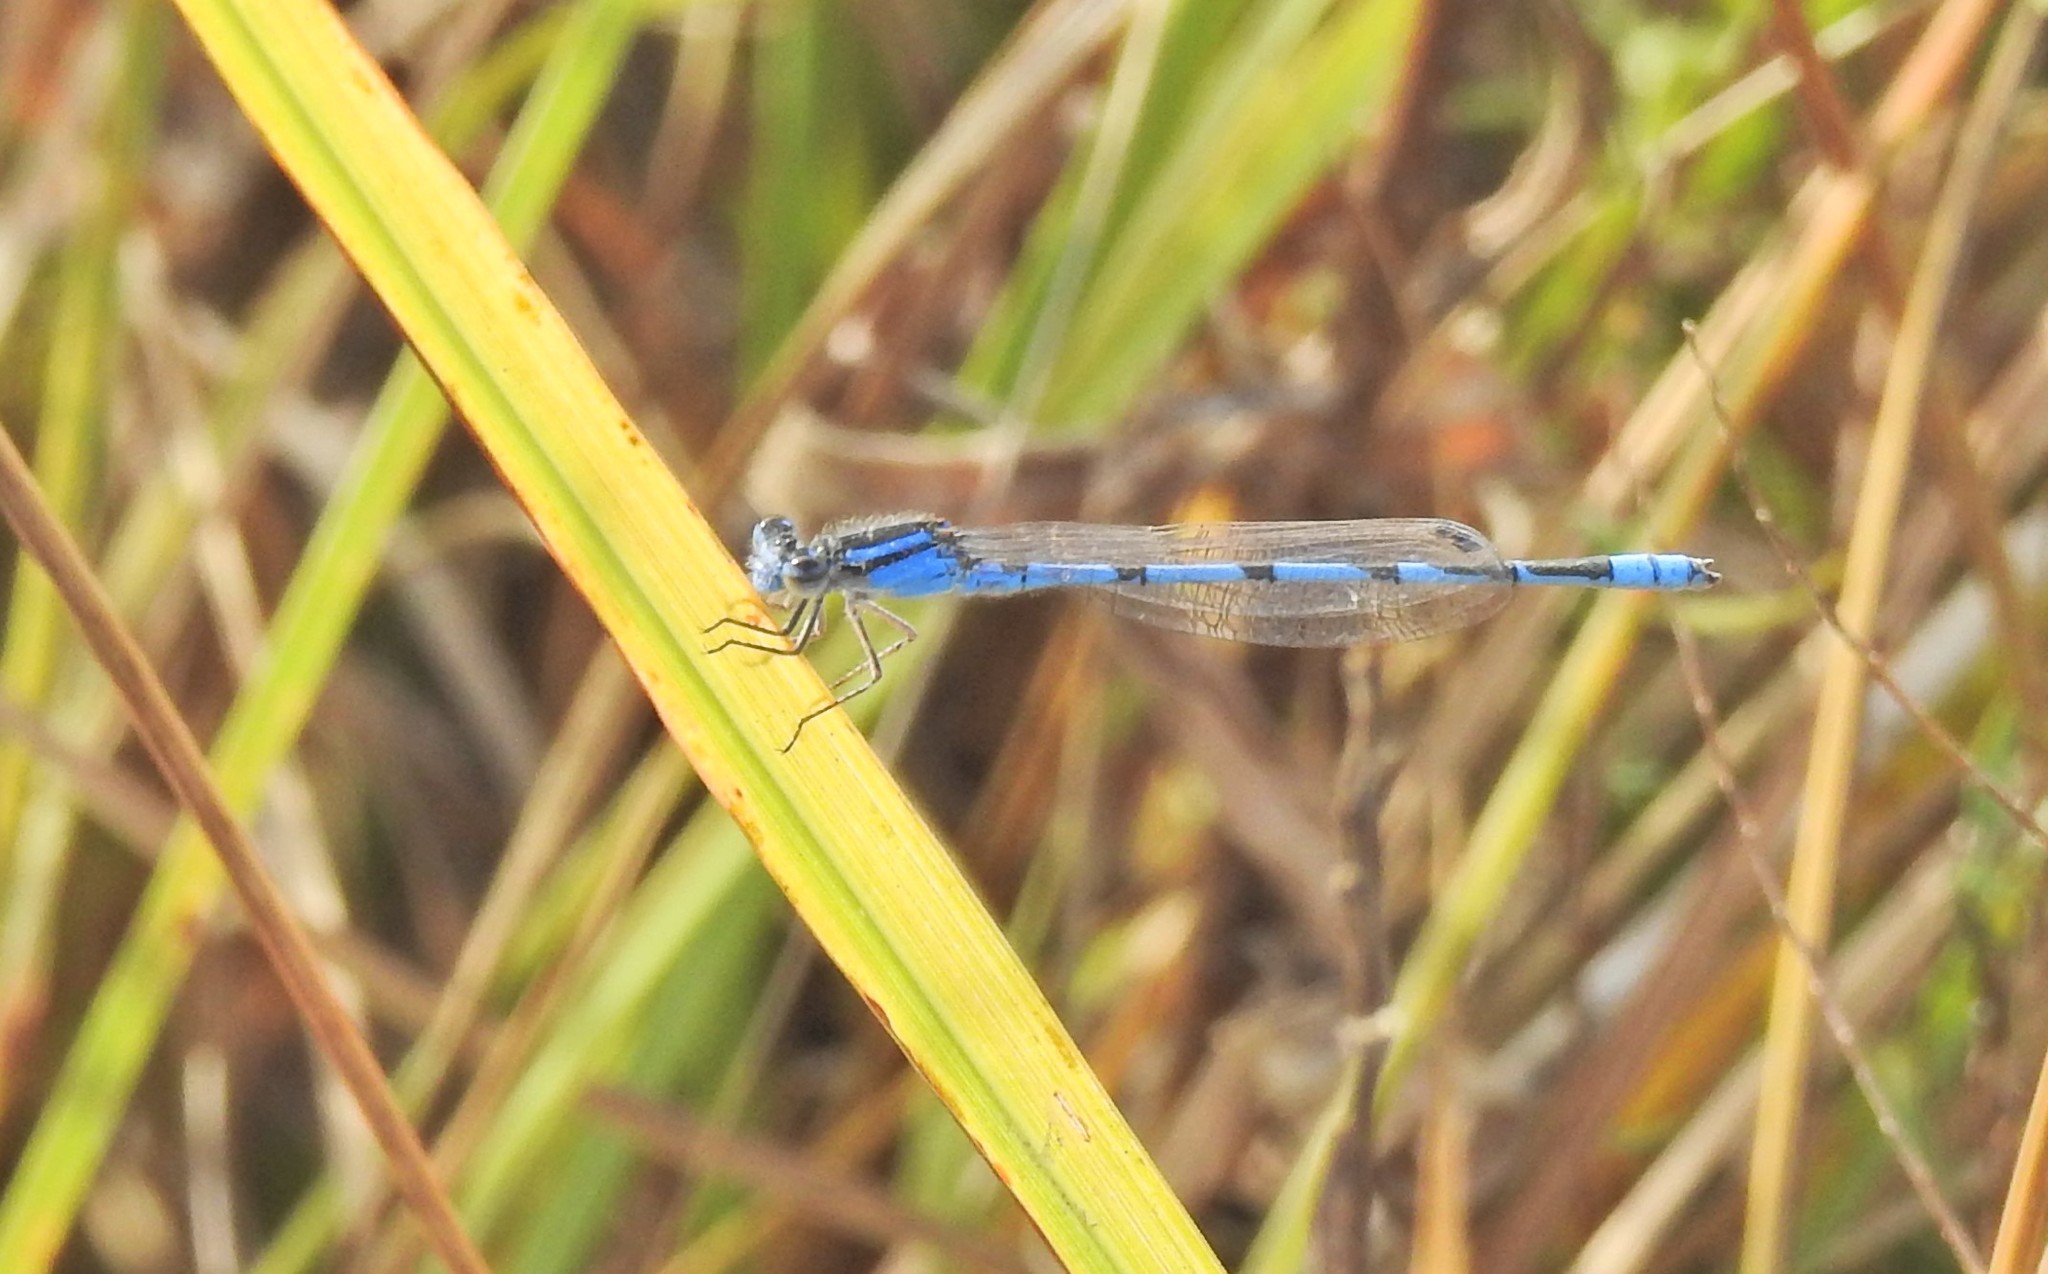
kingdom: Animalia
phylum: Arthropoda
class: Insecta
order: Odonata
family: Coenagrionidae
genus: Enallagma
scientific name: Enallagma civile
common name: Damselfly
